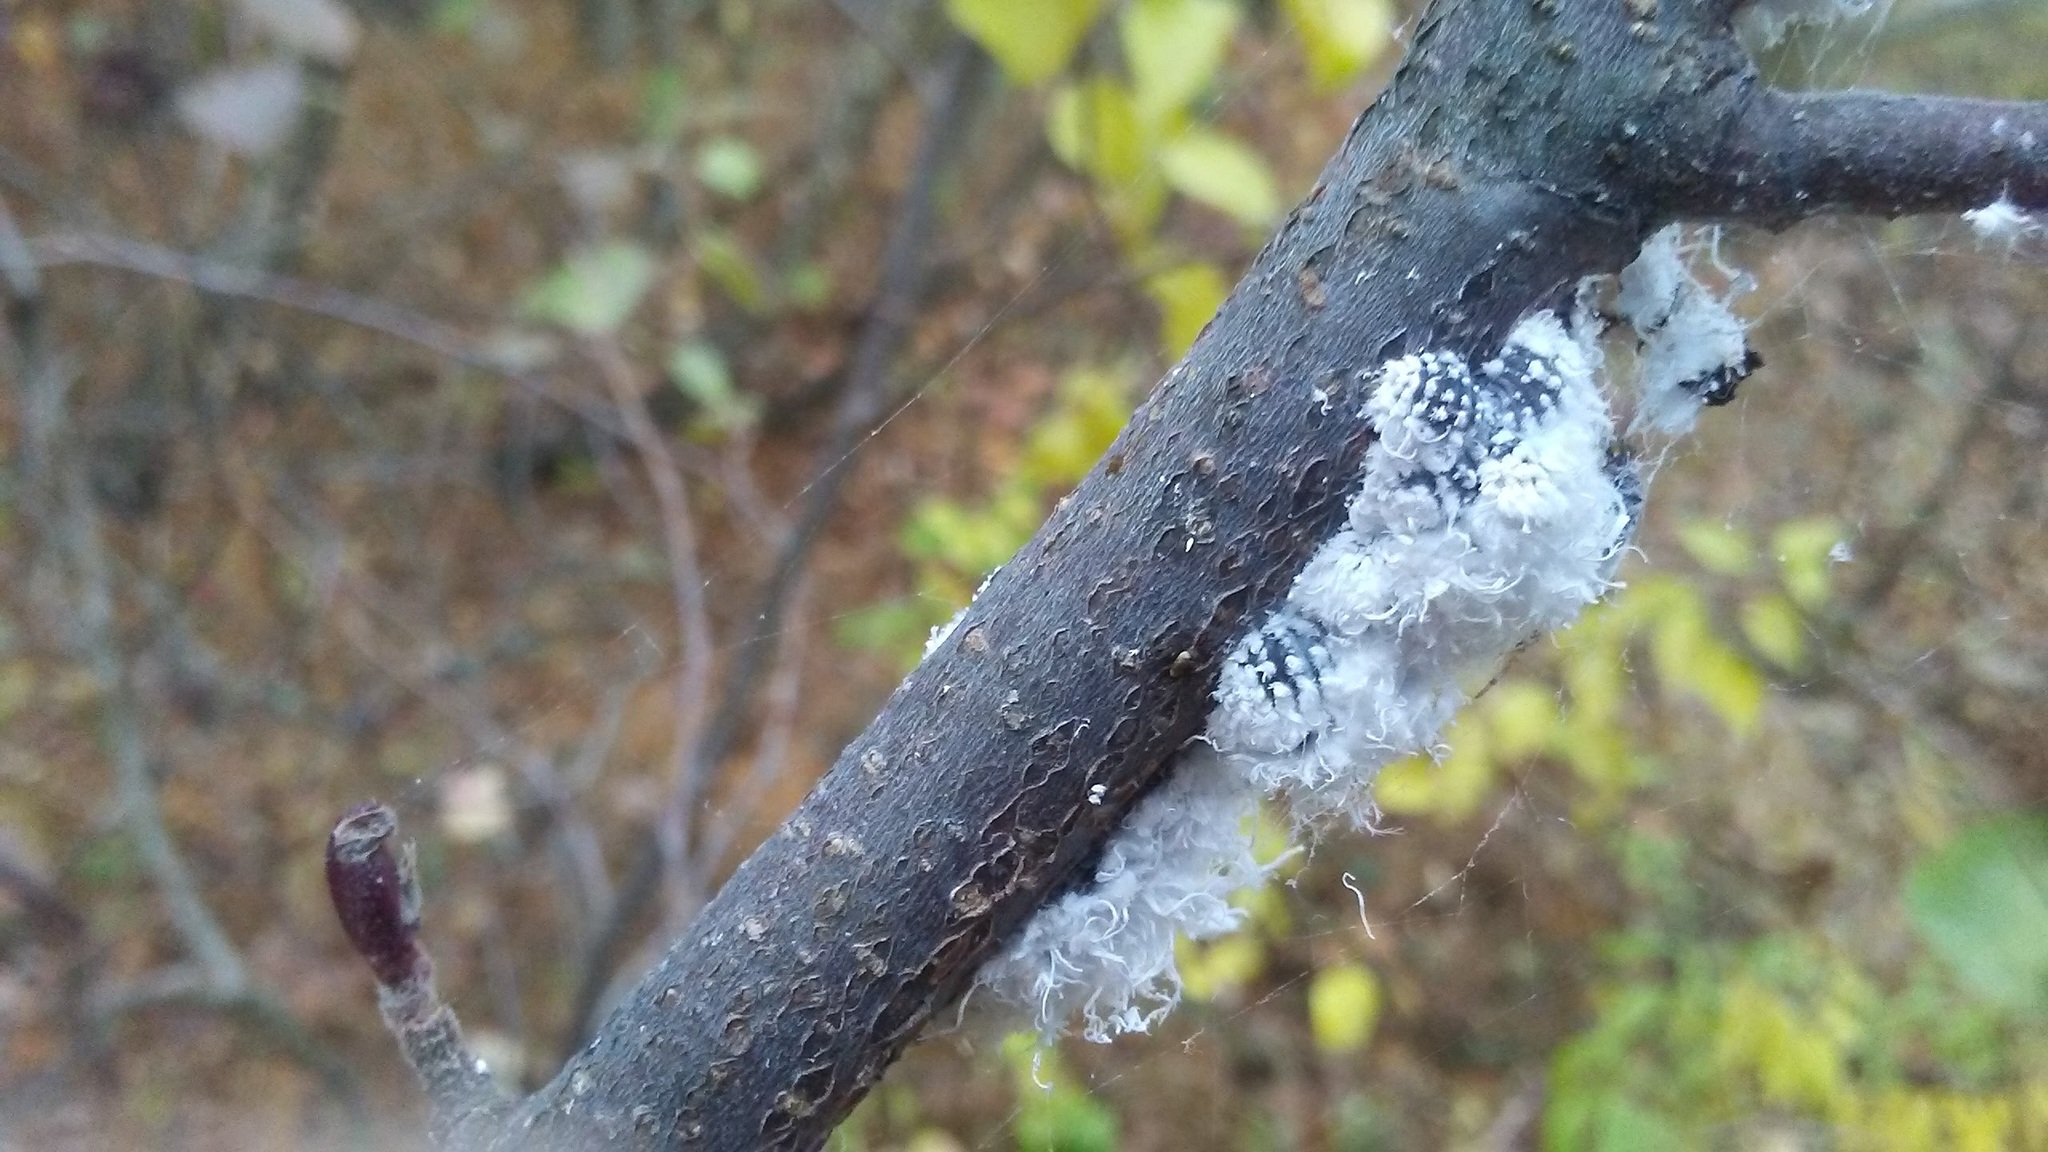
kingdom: Animalia
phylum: Arthropoda
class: Insecta
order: Hemiptera
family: Aphididae
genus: Prociphilus
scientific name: Prociphilus tessellatus
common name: Woolly alder aphid
